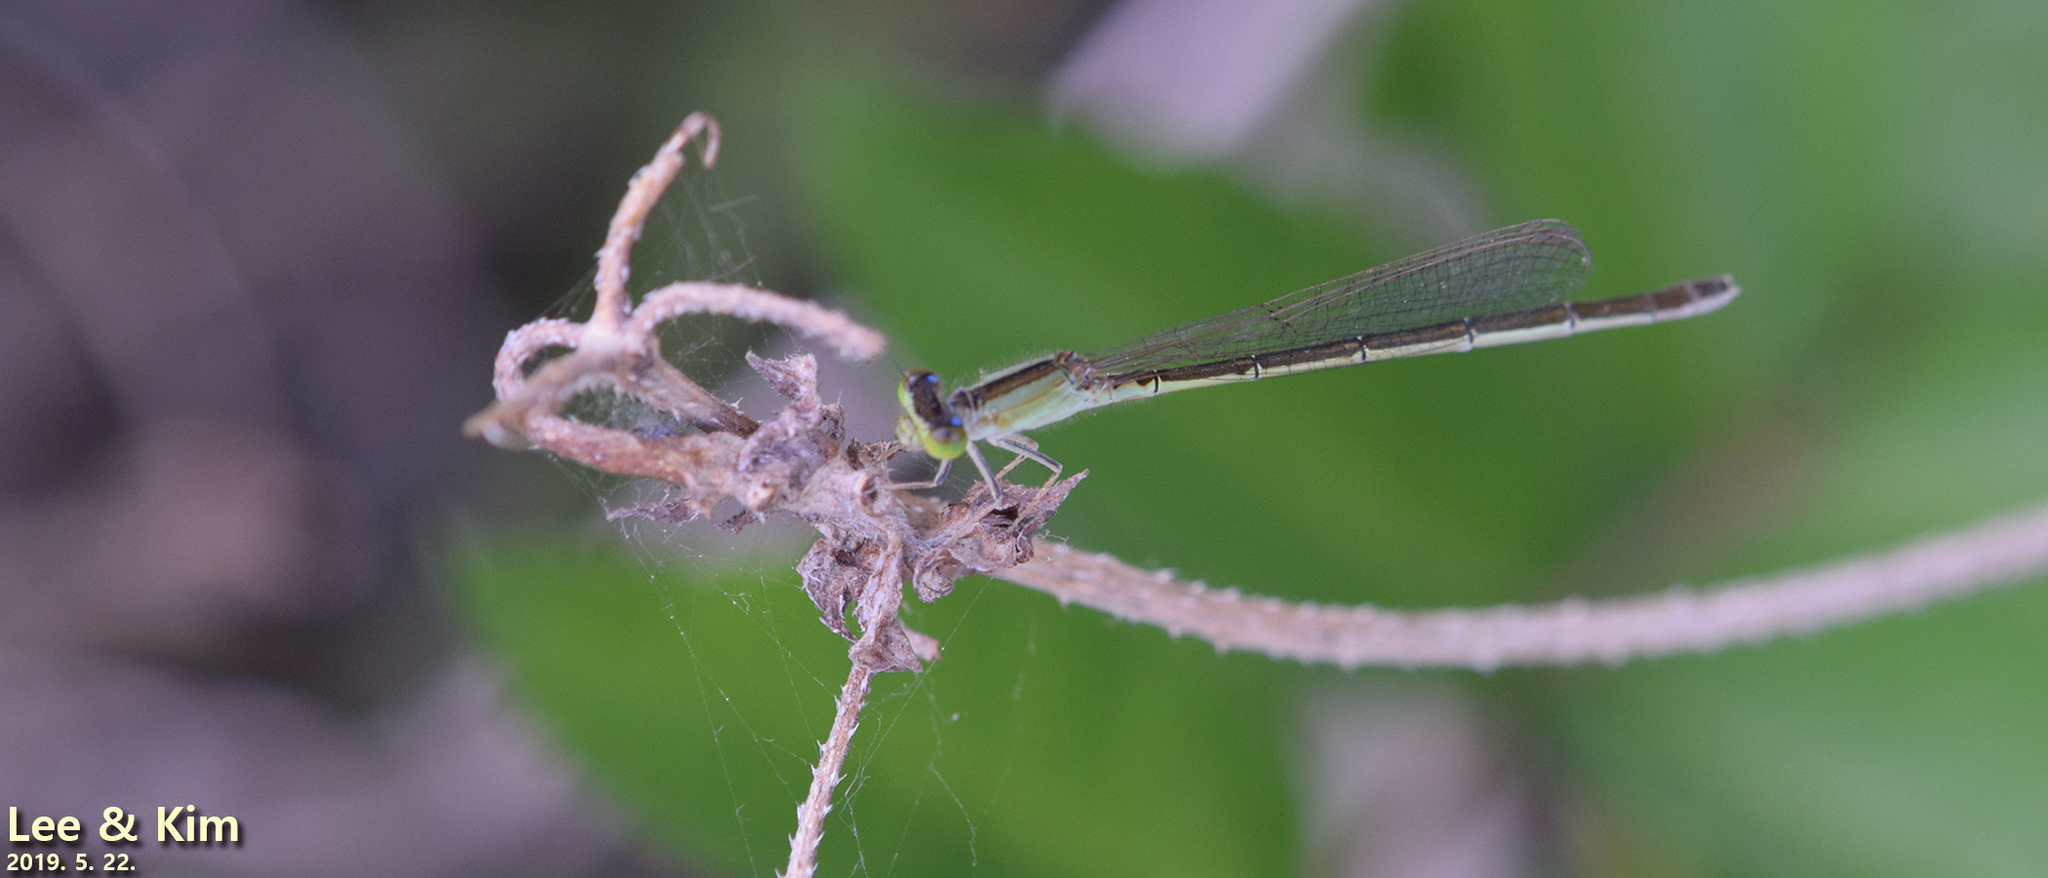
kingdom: Animalia
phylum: Arthropoda
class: Insecta
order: Odonata
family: Coenagrionidae
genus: Ischnura
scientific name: Ischnura asiatica
